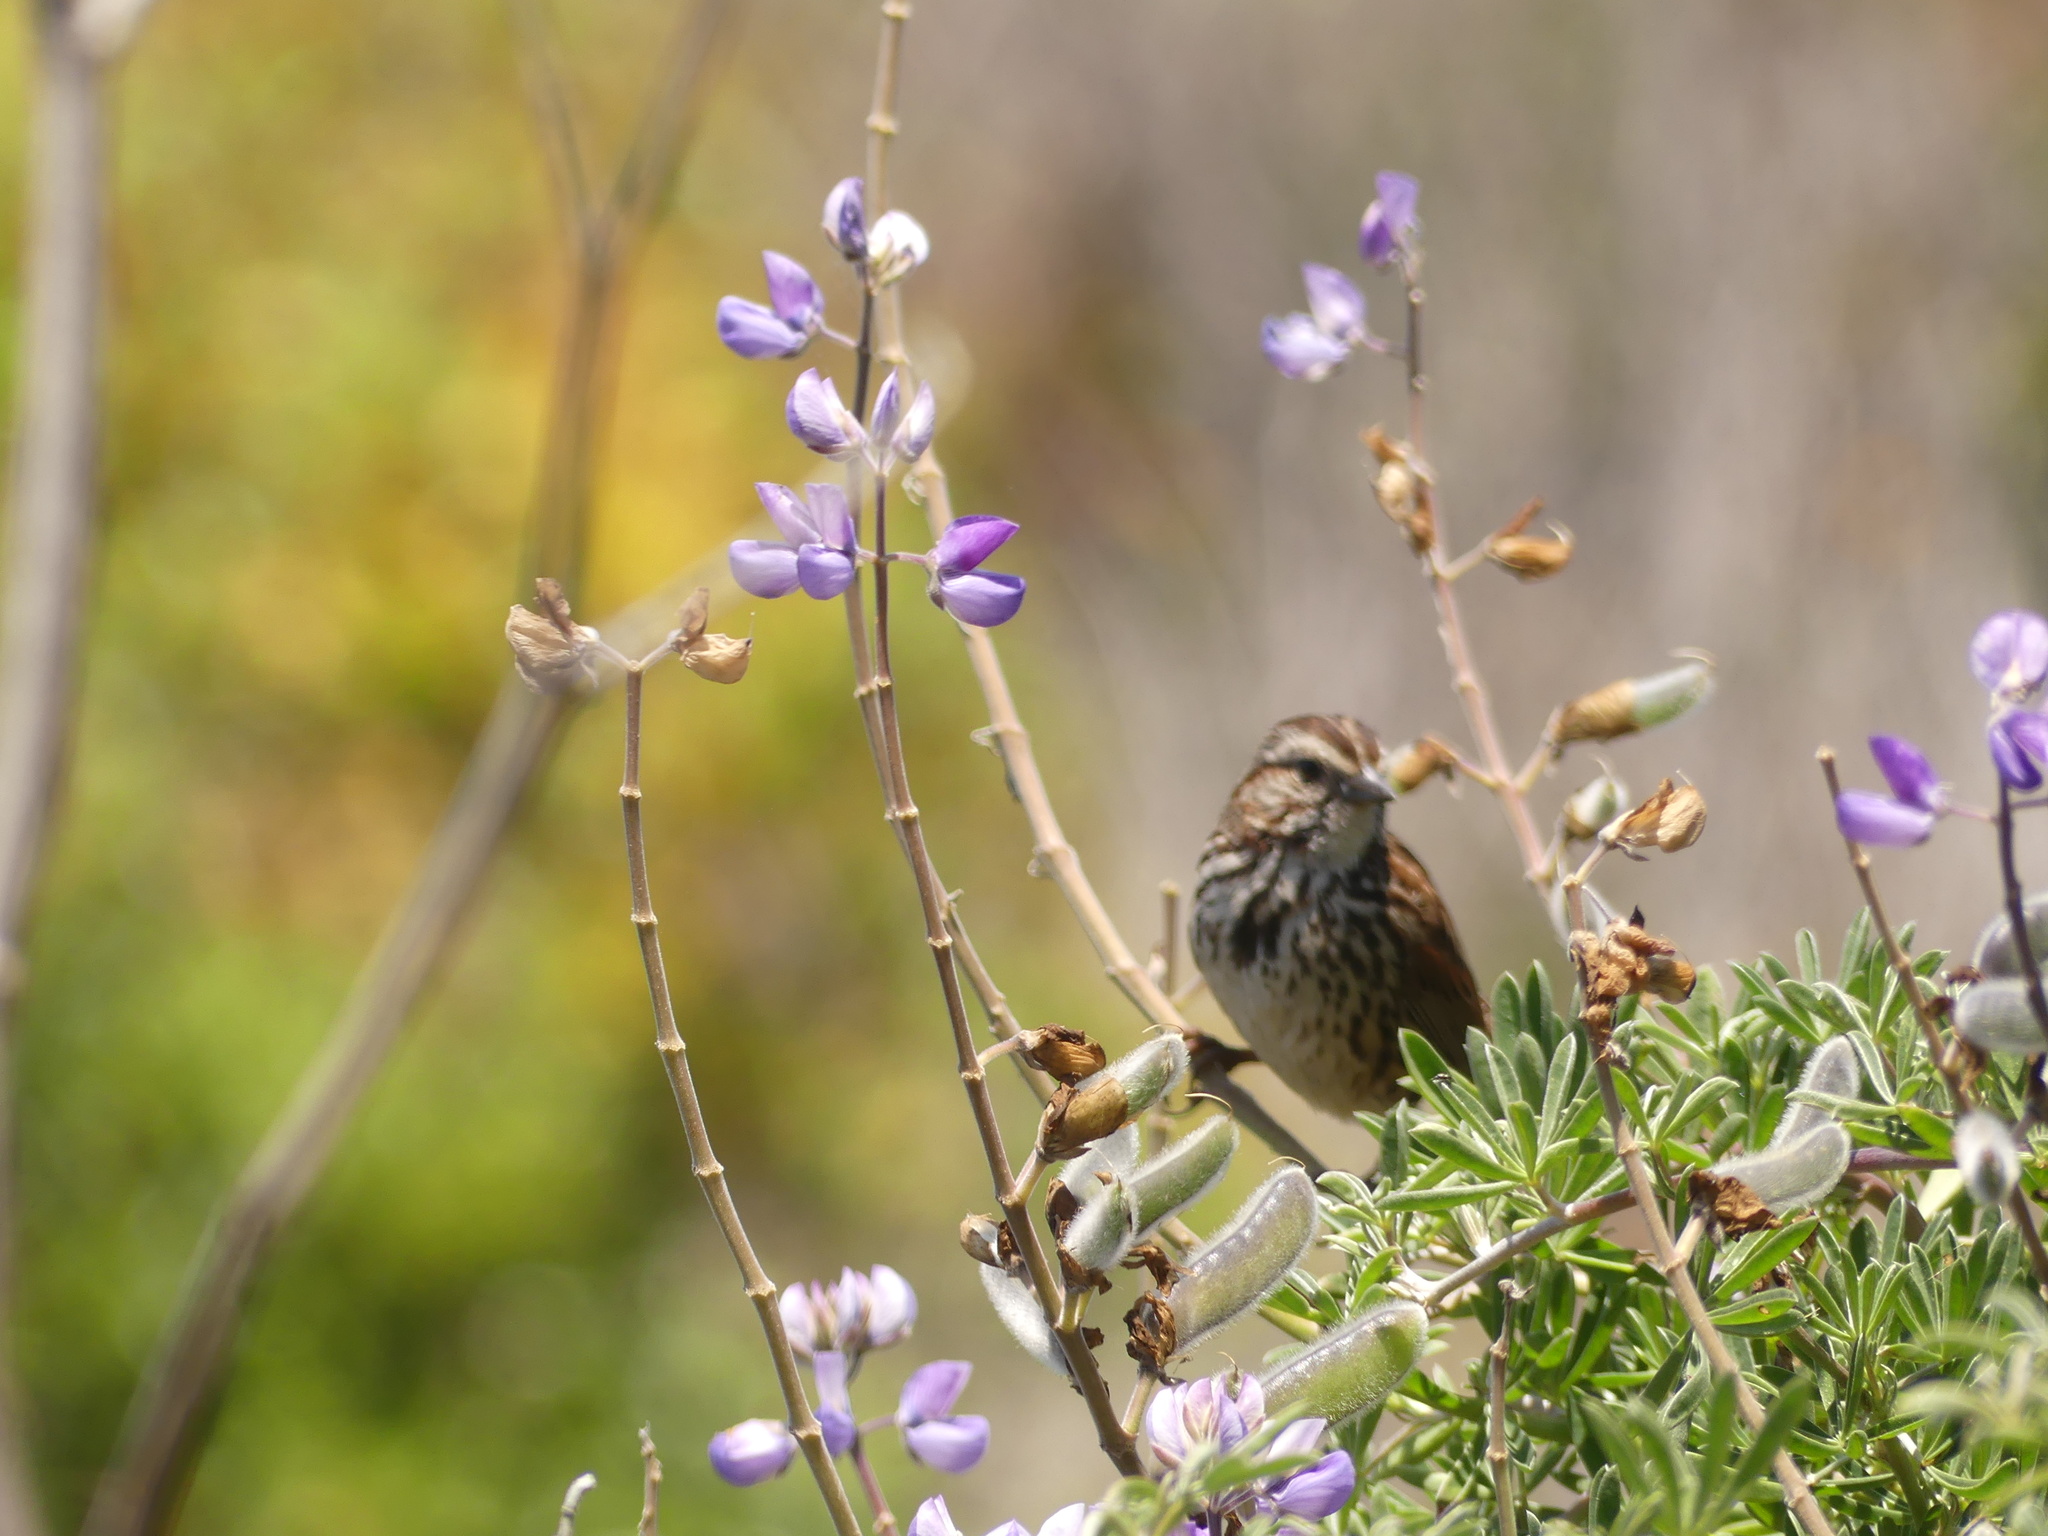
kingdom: Animalia
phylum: Chordata
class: Aves
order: Passeriformes
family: Passerellidae
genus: Melospiza
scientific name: Melospiza melodia
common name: Song sparrow
